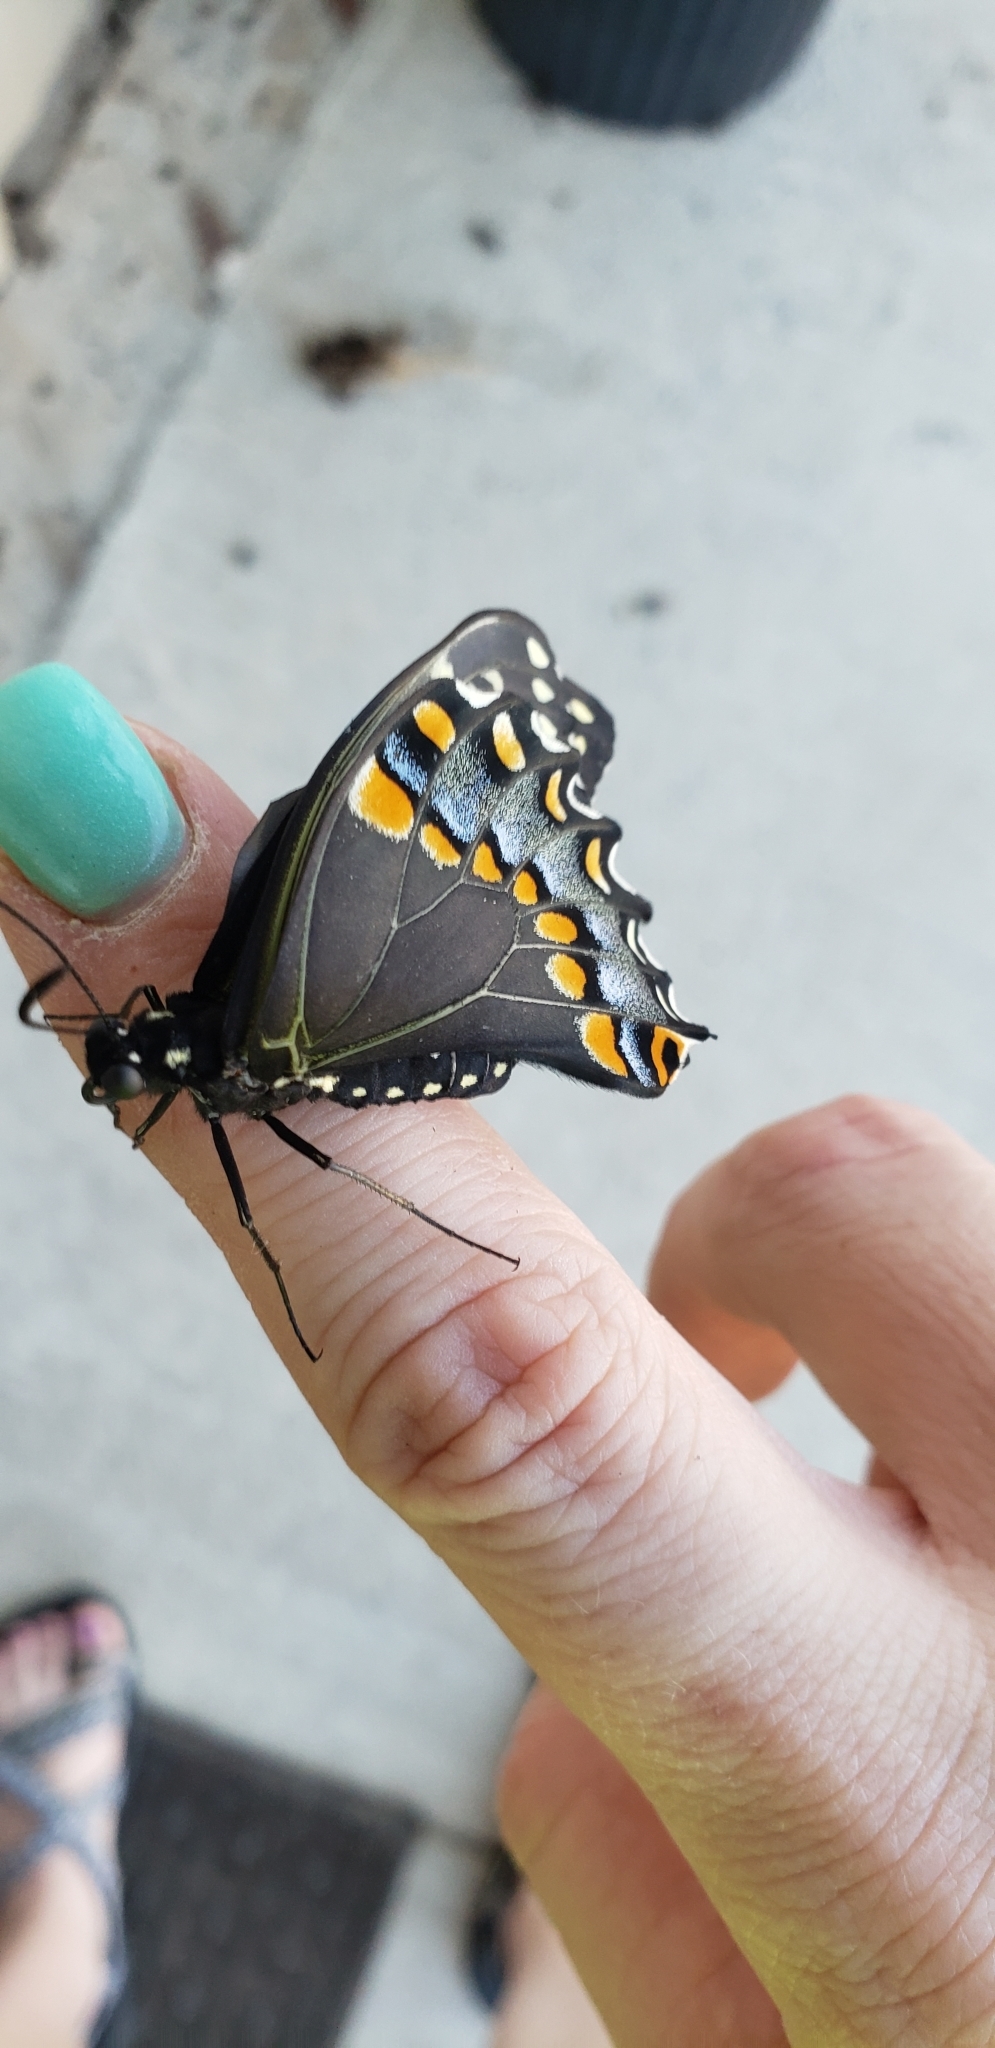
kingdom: Animalia
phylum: Arthropoda
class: Insecta
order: Lepidoptera
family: Papilionidae
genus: Papilio
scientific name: Papilio polyxenes
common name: Black swallowtail
